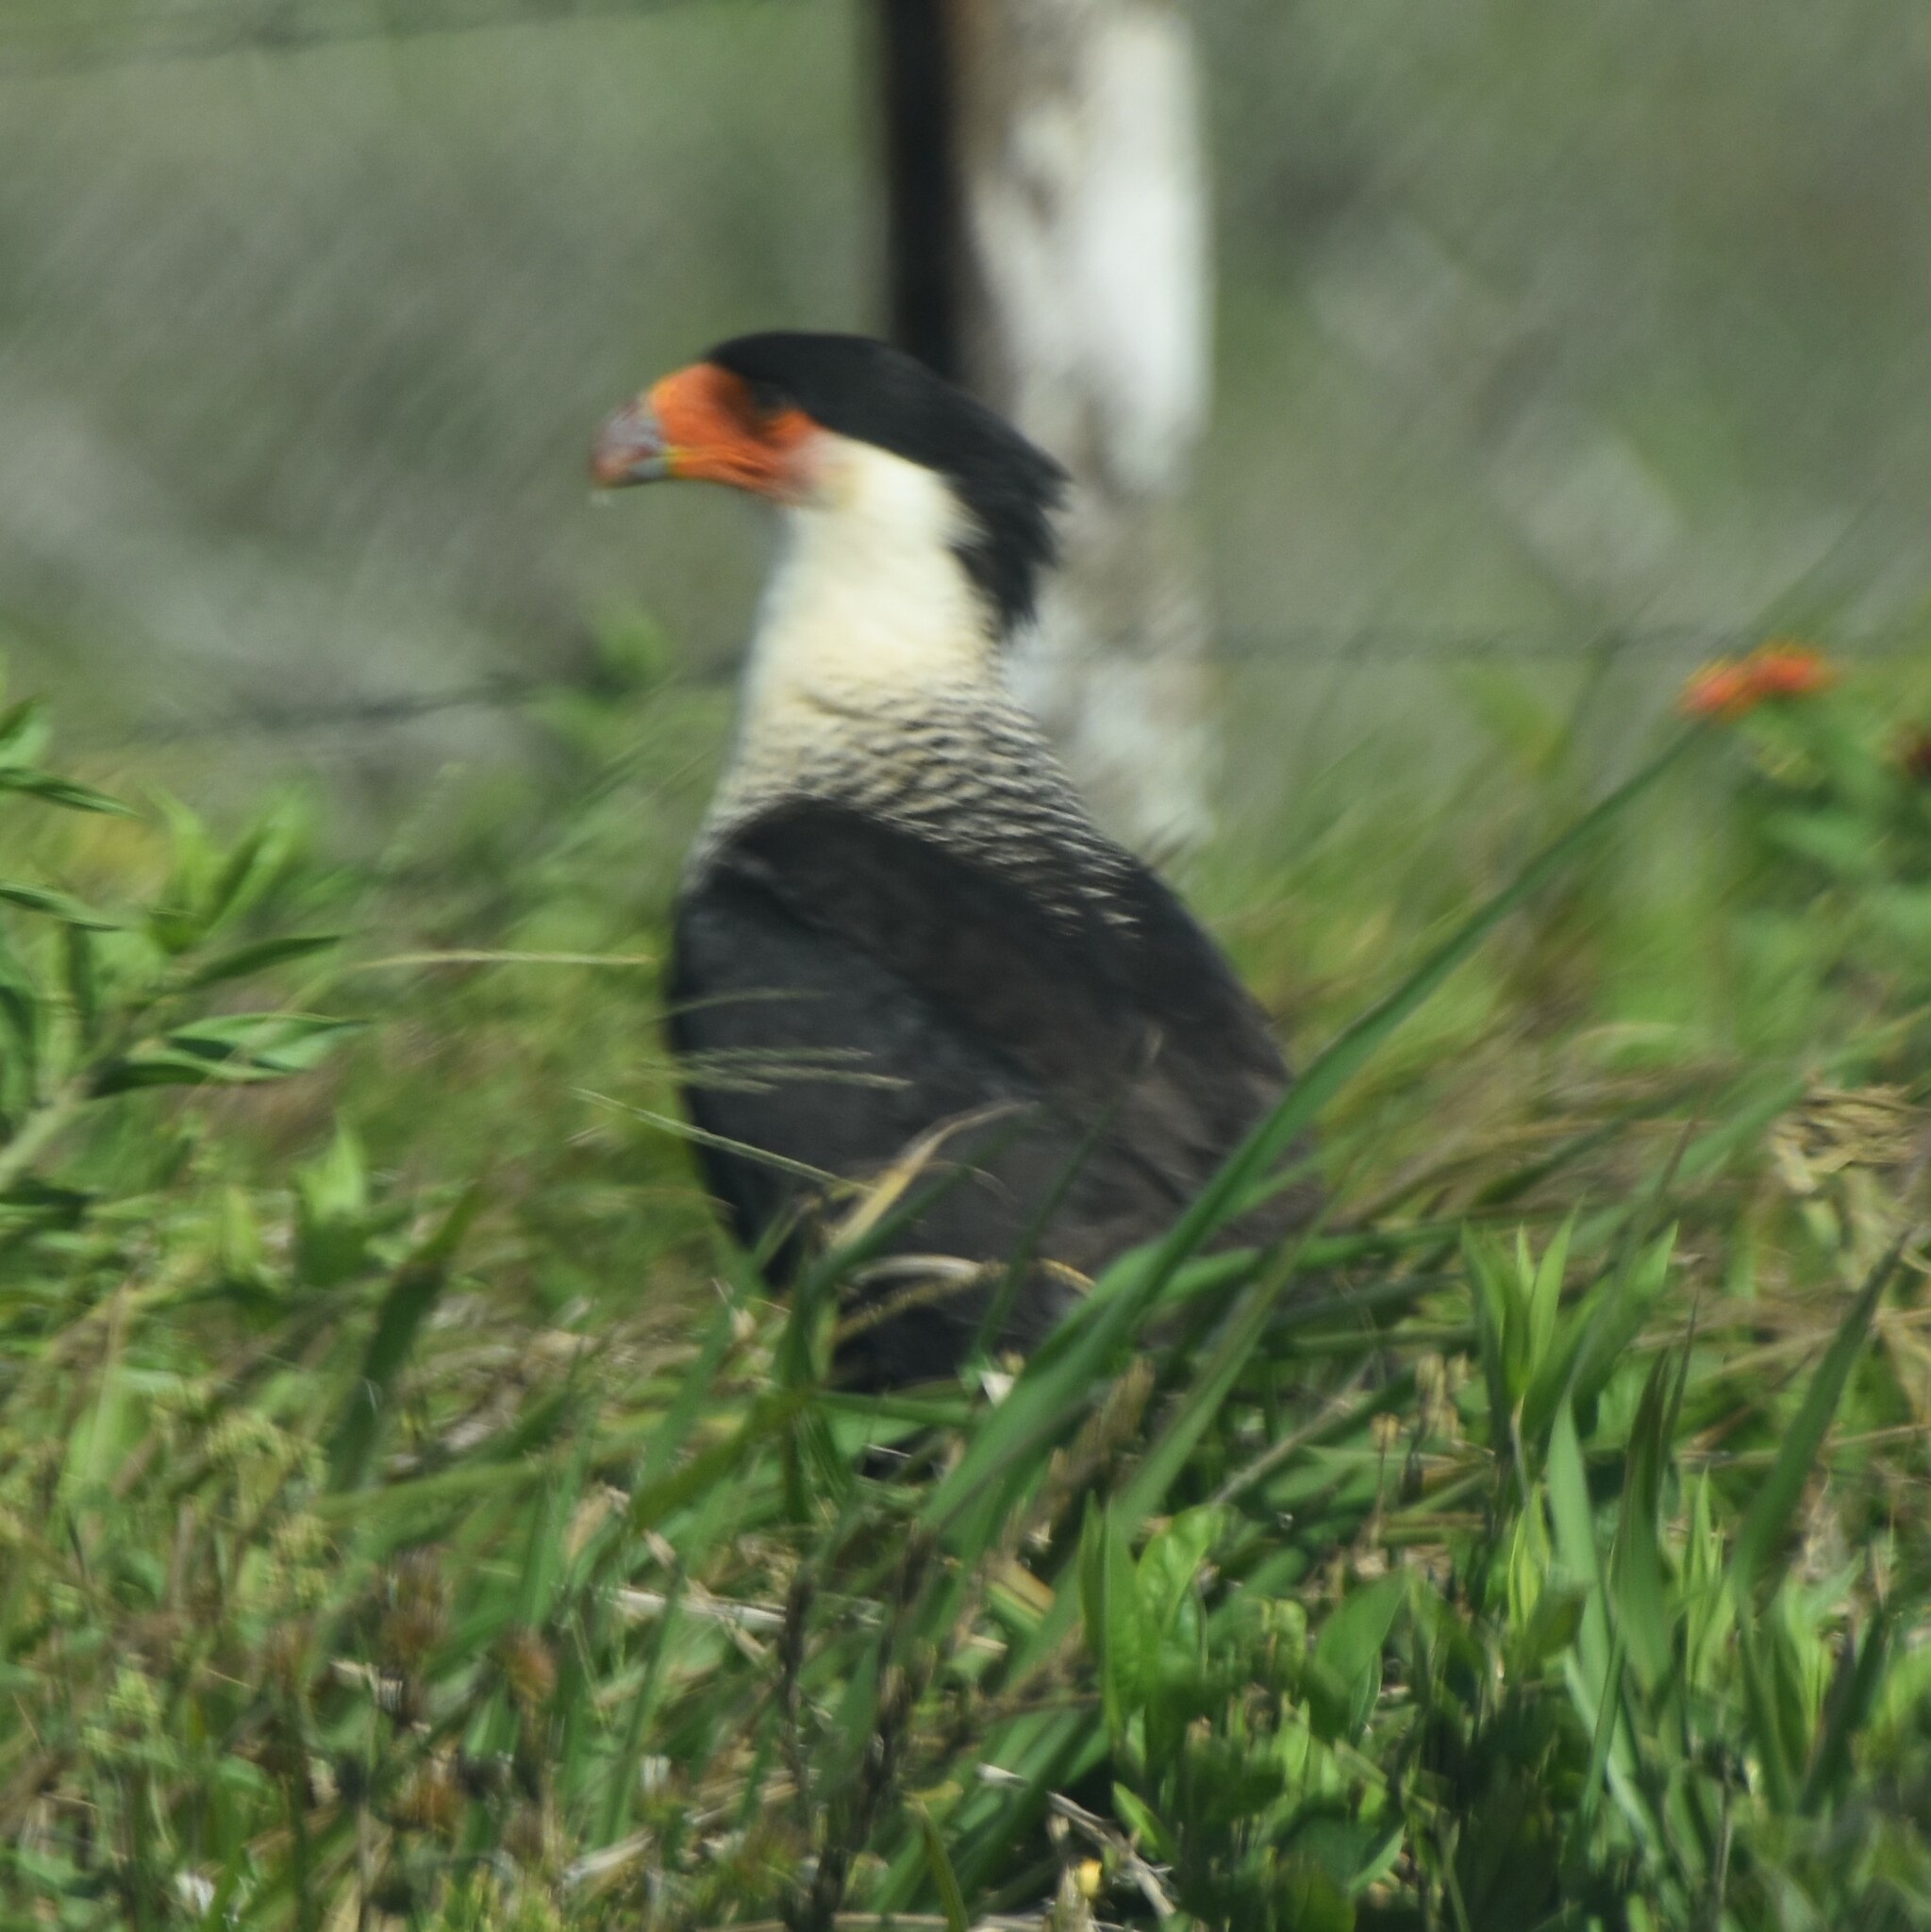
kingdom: Animalia
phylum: Chordata
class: Aves
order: Falconiformes
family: Falconidae
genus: Caracara
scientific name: Caracara plancus
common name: Southern caracara
